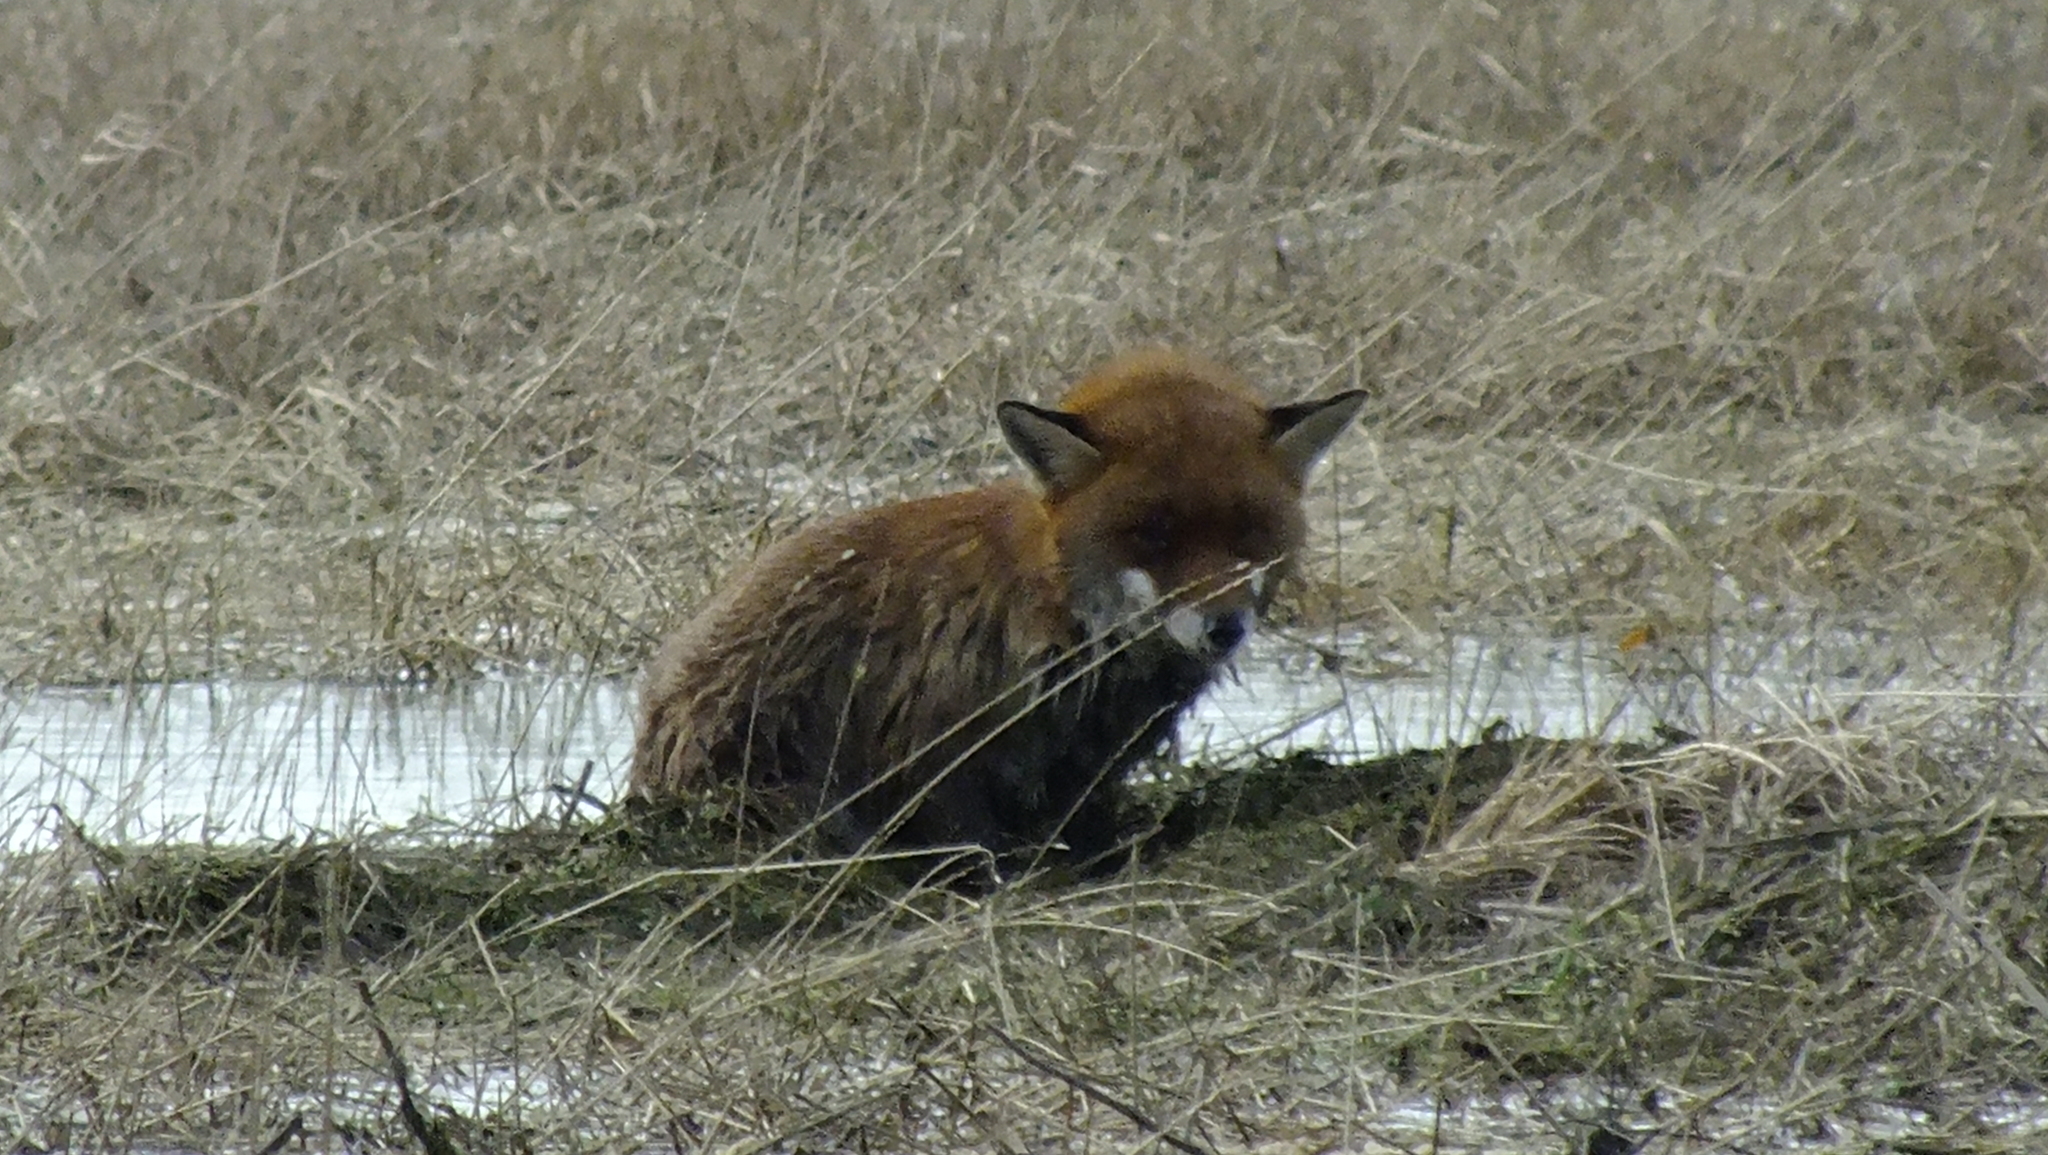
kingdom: Animalia
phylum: Chordata
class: Mammalia
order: Carnivora
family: Canidae
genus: Vulpes
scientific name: Vulpes vulpes
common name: Red fox
